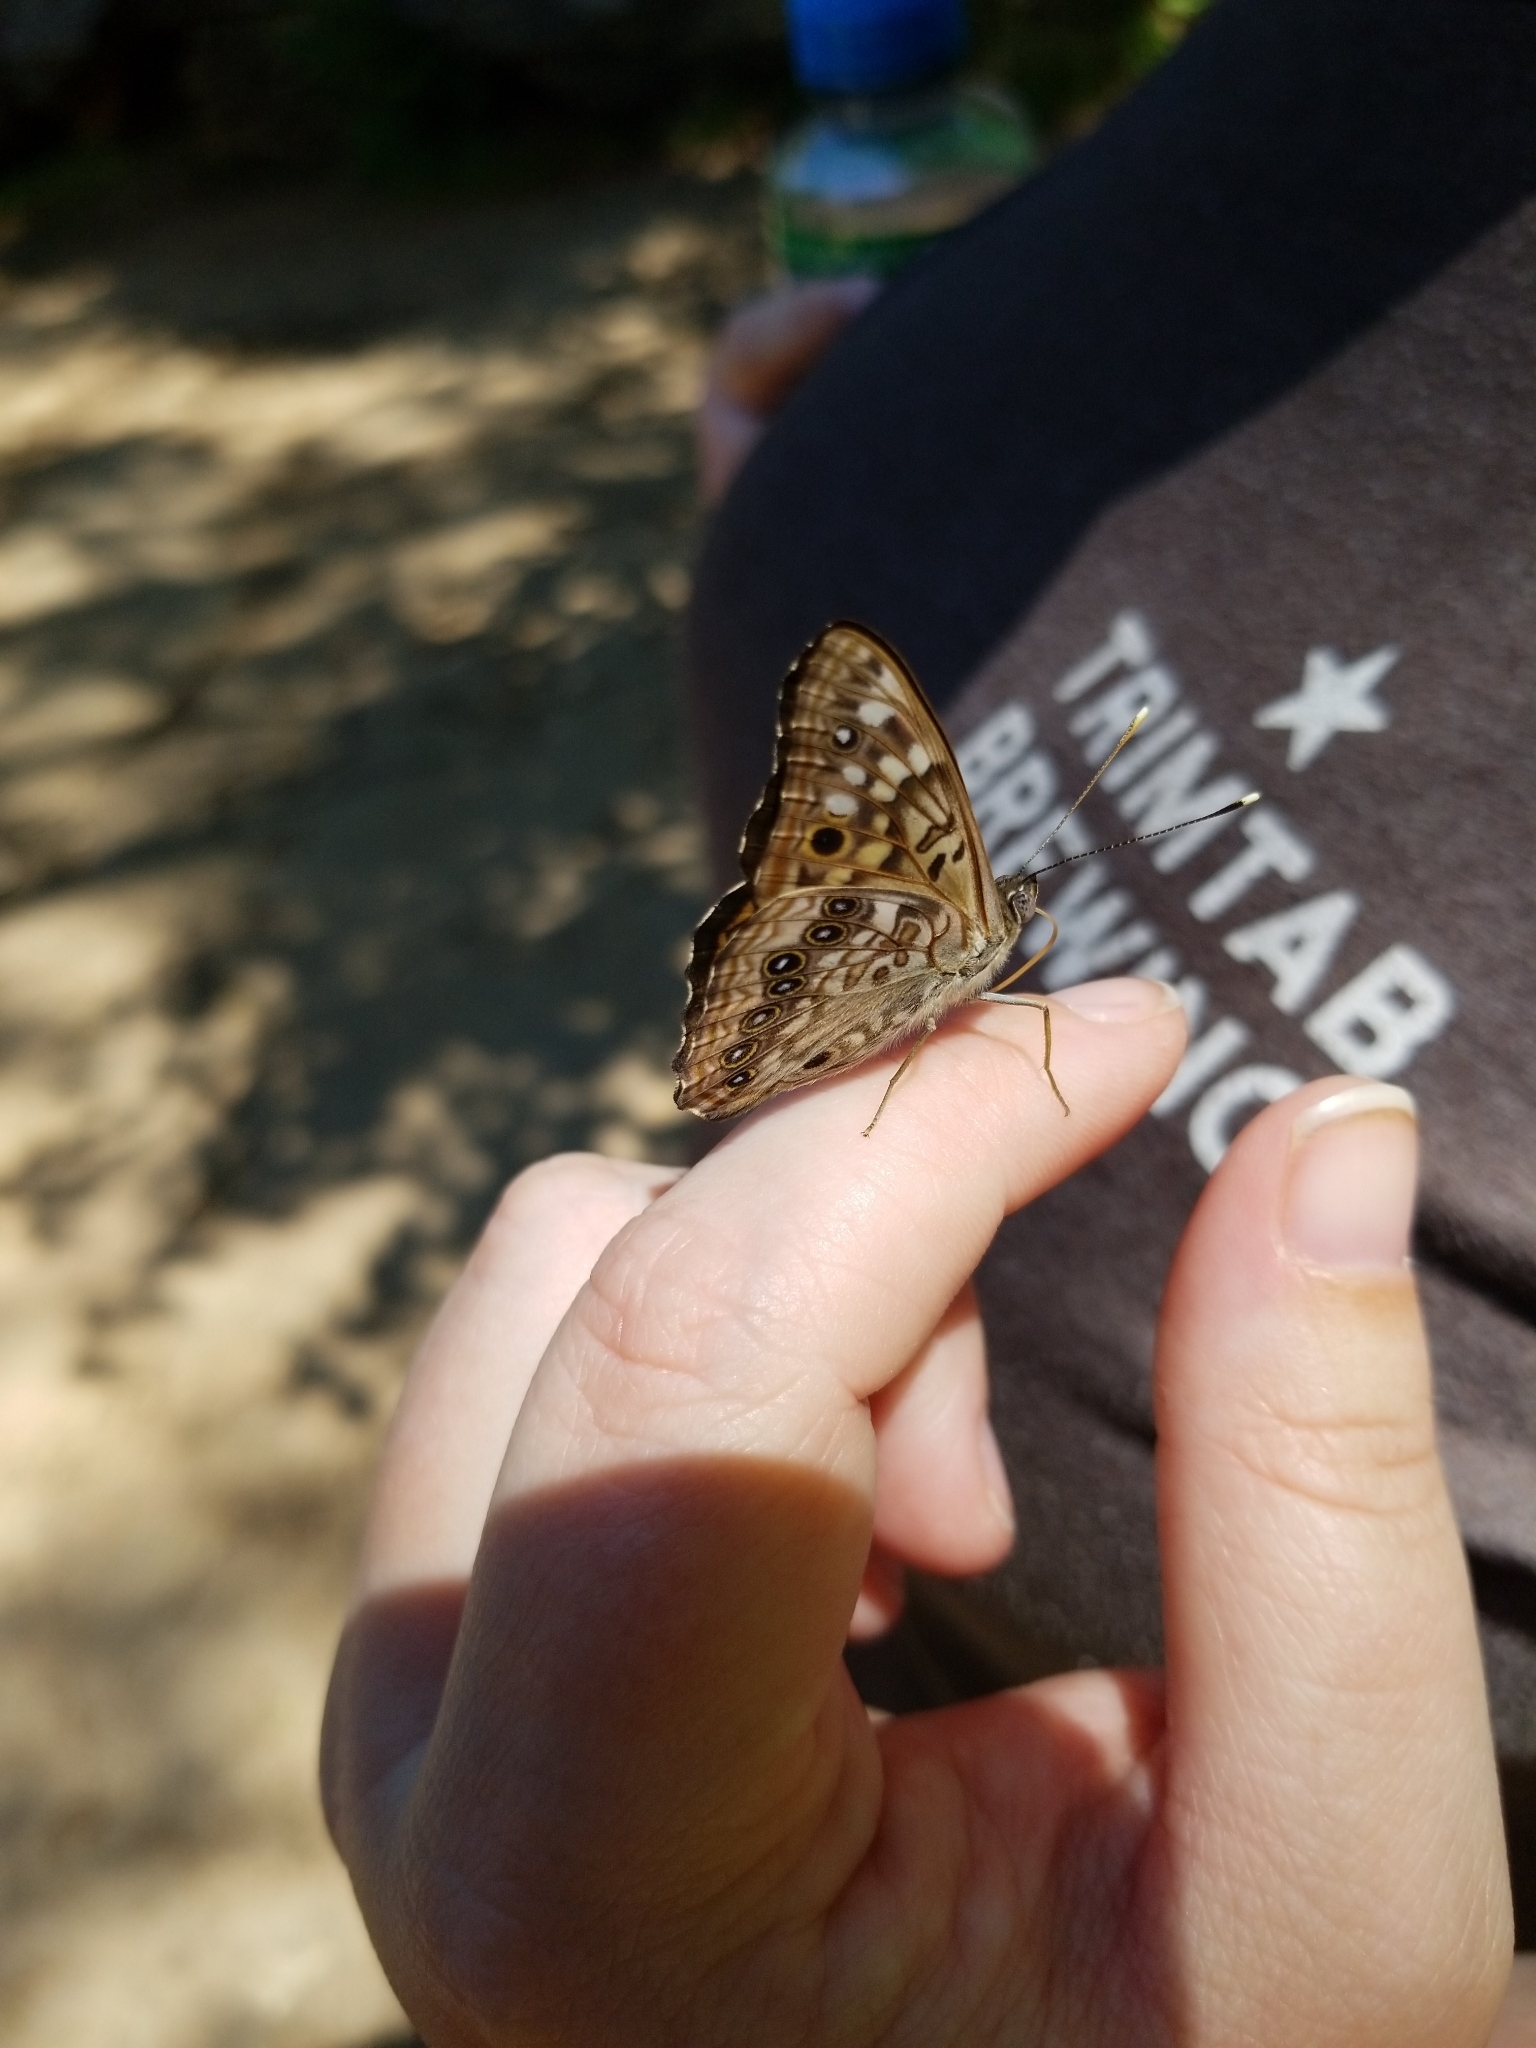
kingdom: Animalia
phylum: Arthropoda
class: Insecta
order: Lepidoptera
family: Nymphalidae
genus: Asterocampa
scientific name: Asterocampa celtis
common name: Hackberry emperor
